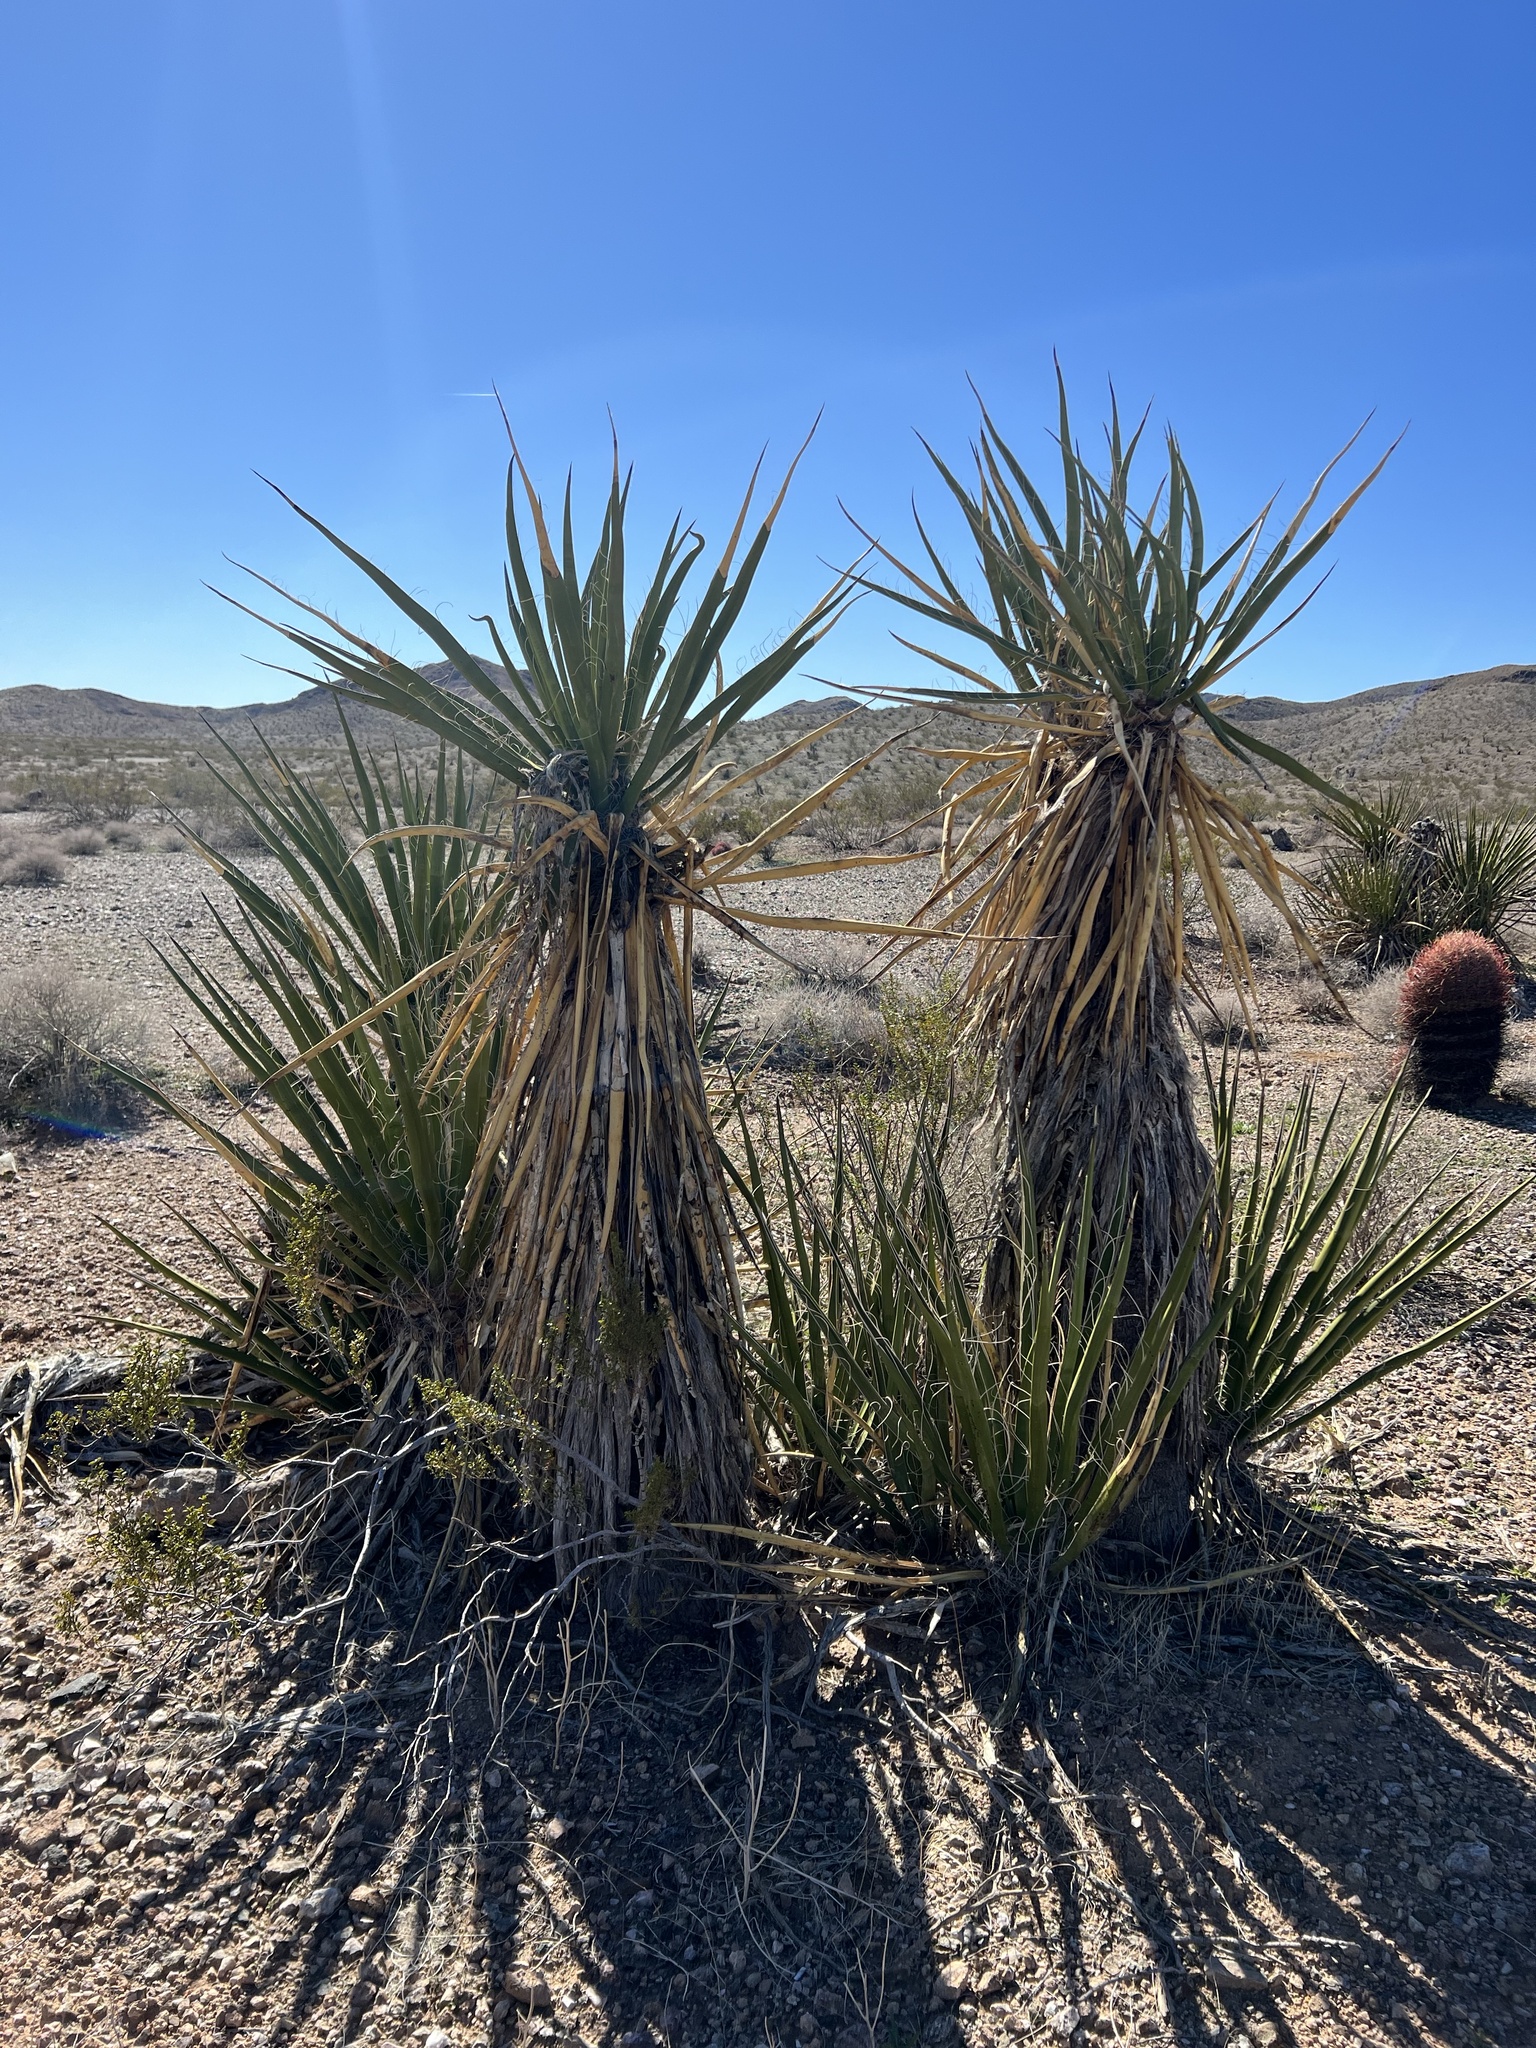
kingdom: Plantae
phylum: Tracheophyta
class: Liliopsida
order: Asparagales
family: Asparagaceae
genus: Yucca
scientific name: Yucca schidigera
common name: Mojave yucca
